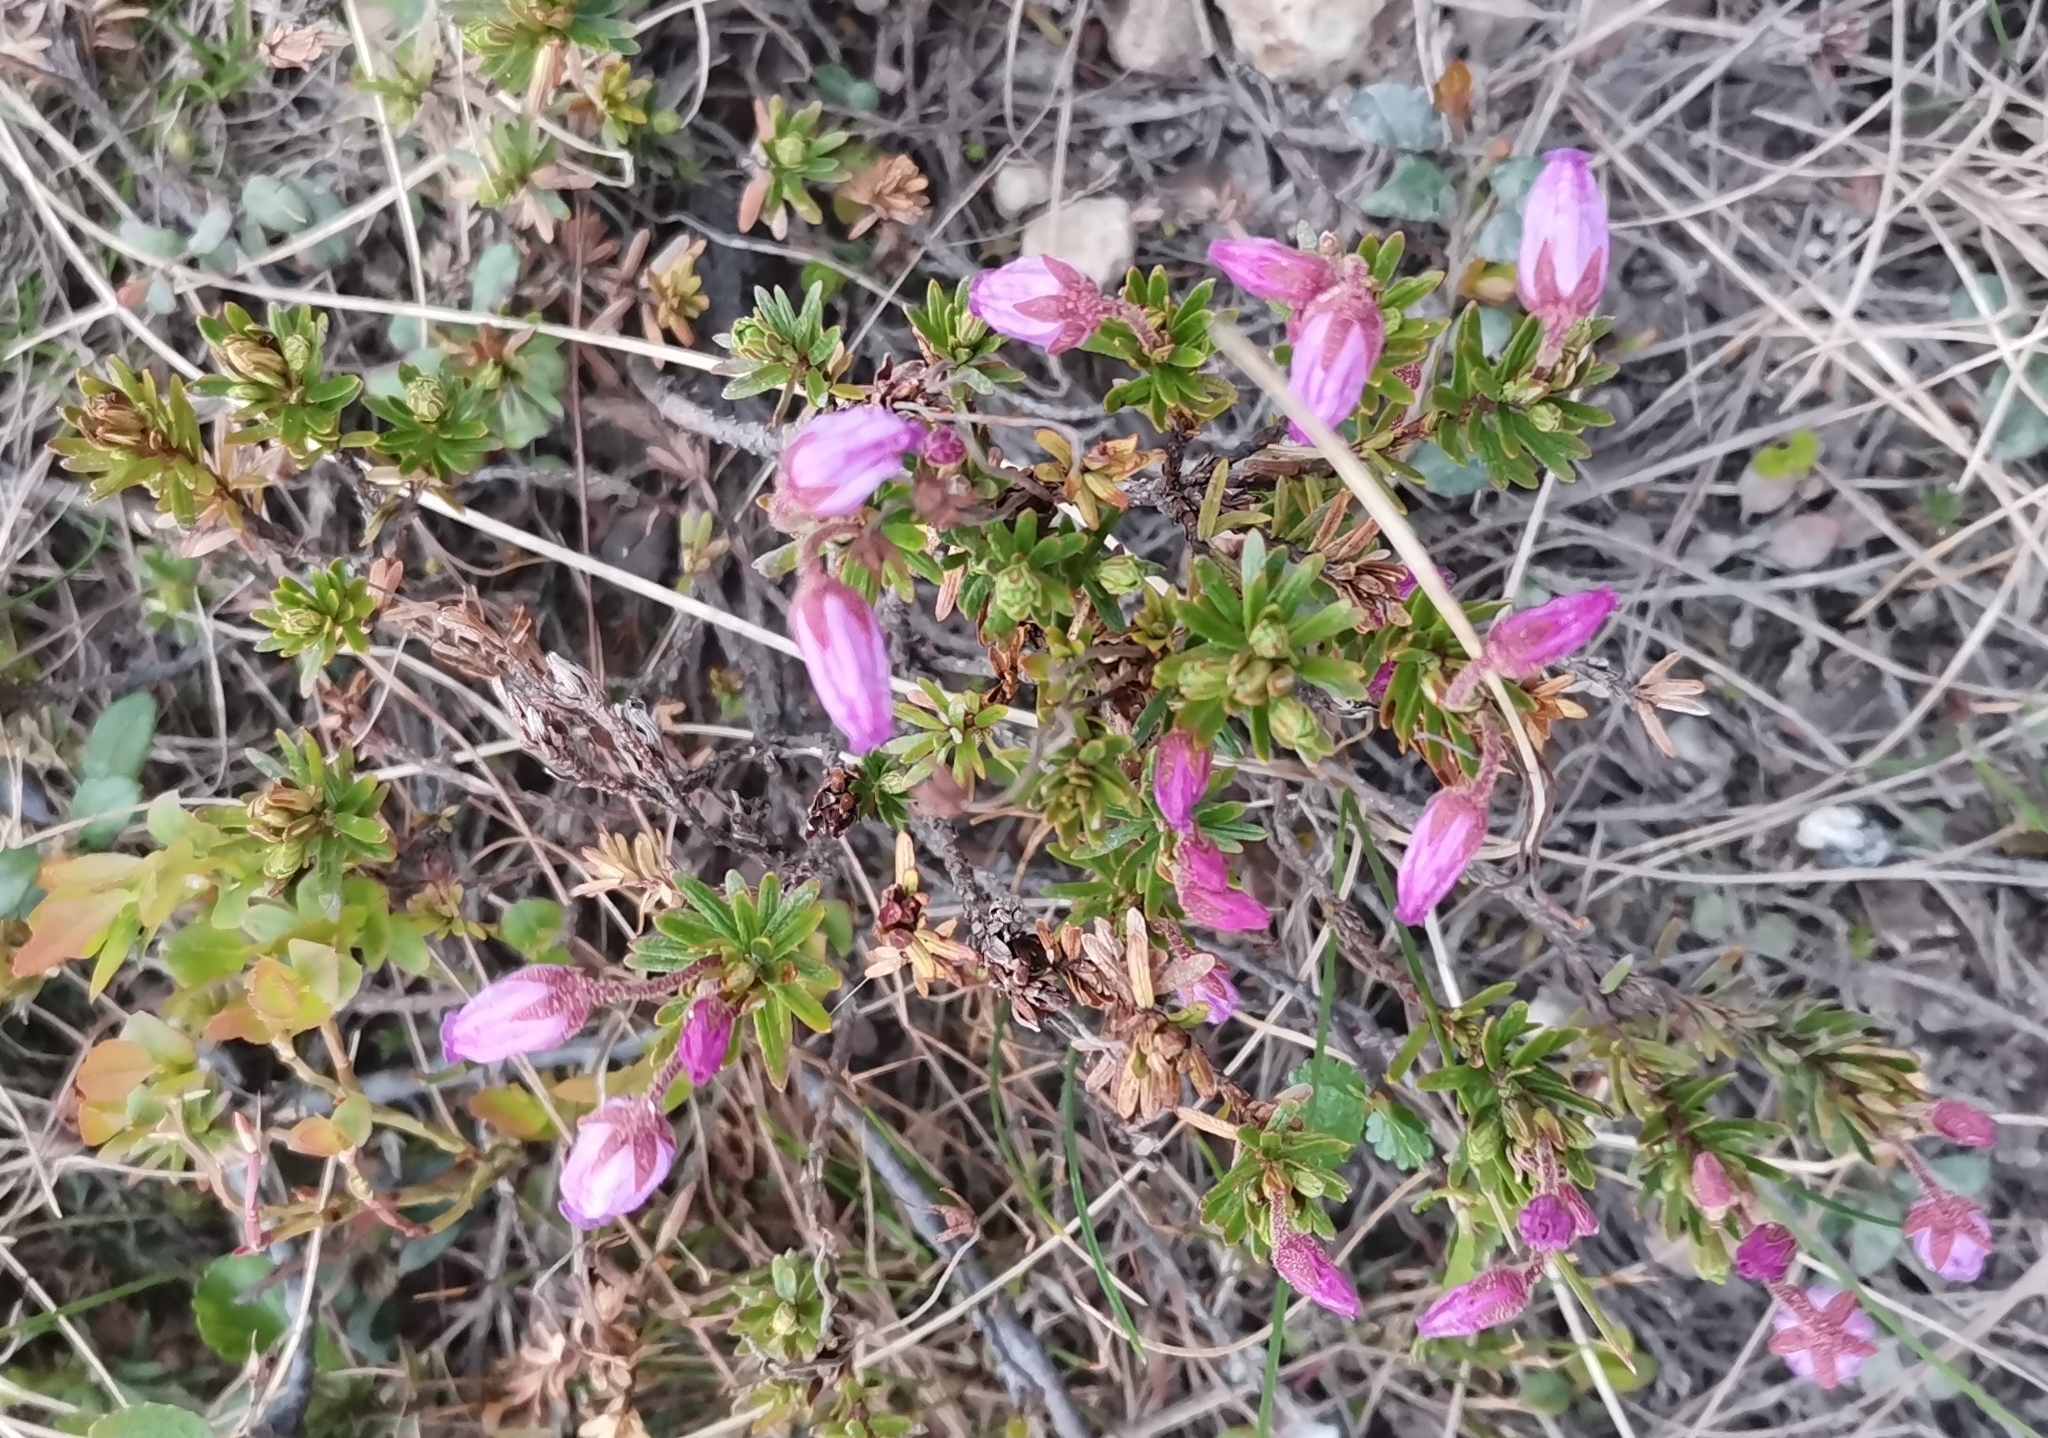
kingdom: Plantae
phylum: Tracheophyta
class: Magnoliopsida
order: Ericales
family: Ericaceae
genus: Phyllodoce
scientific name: Phyllodoce caerulea
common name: Blue heath
